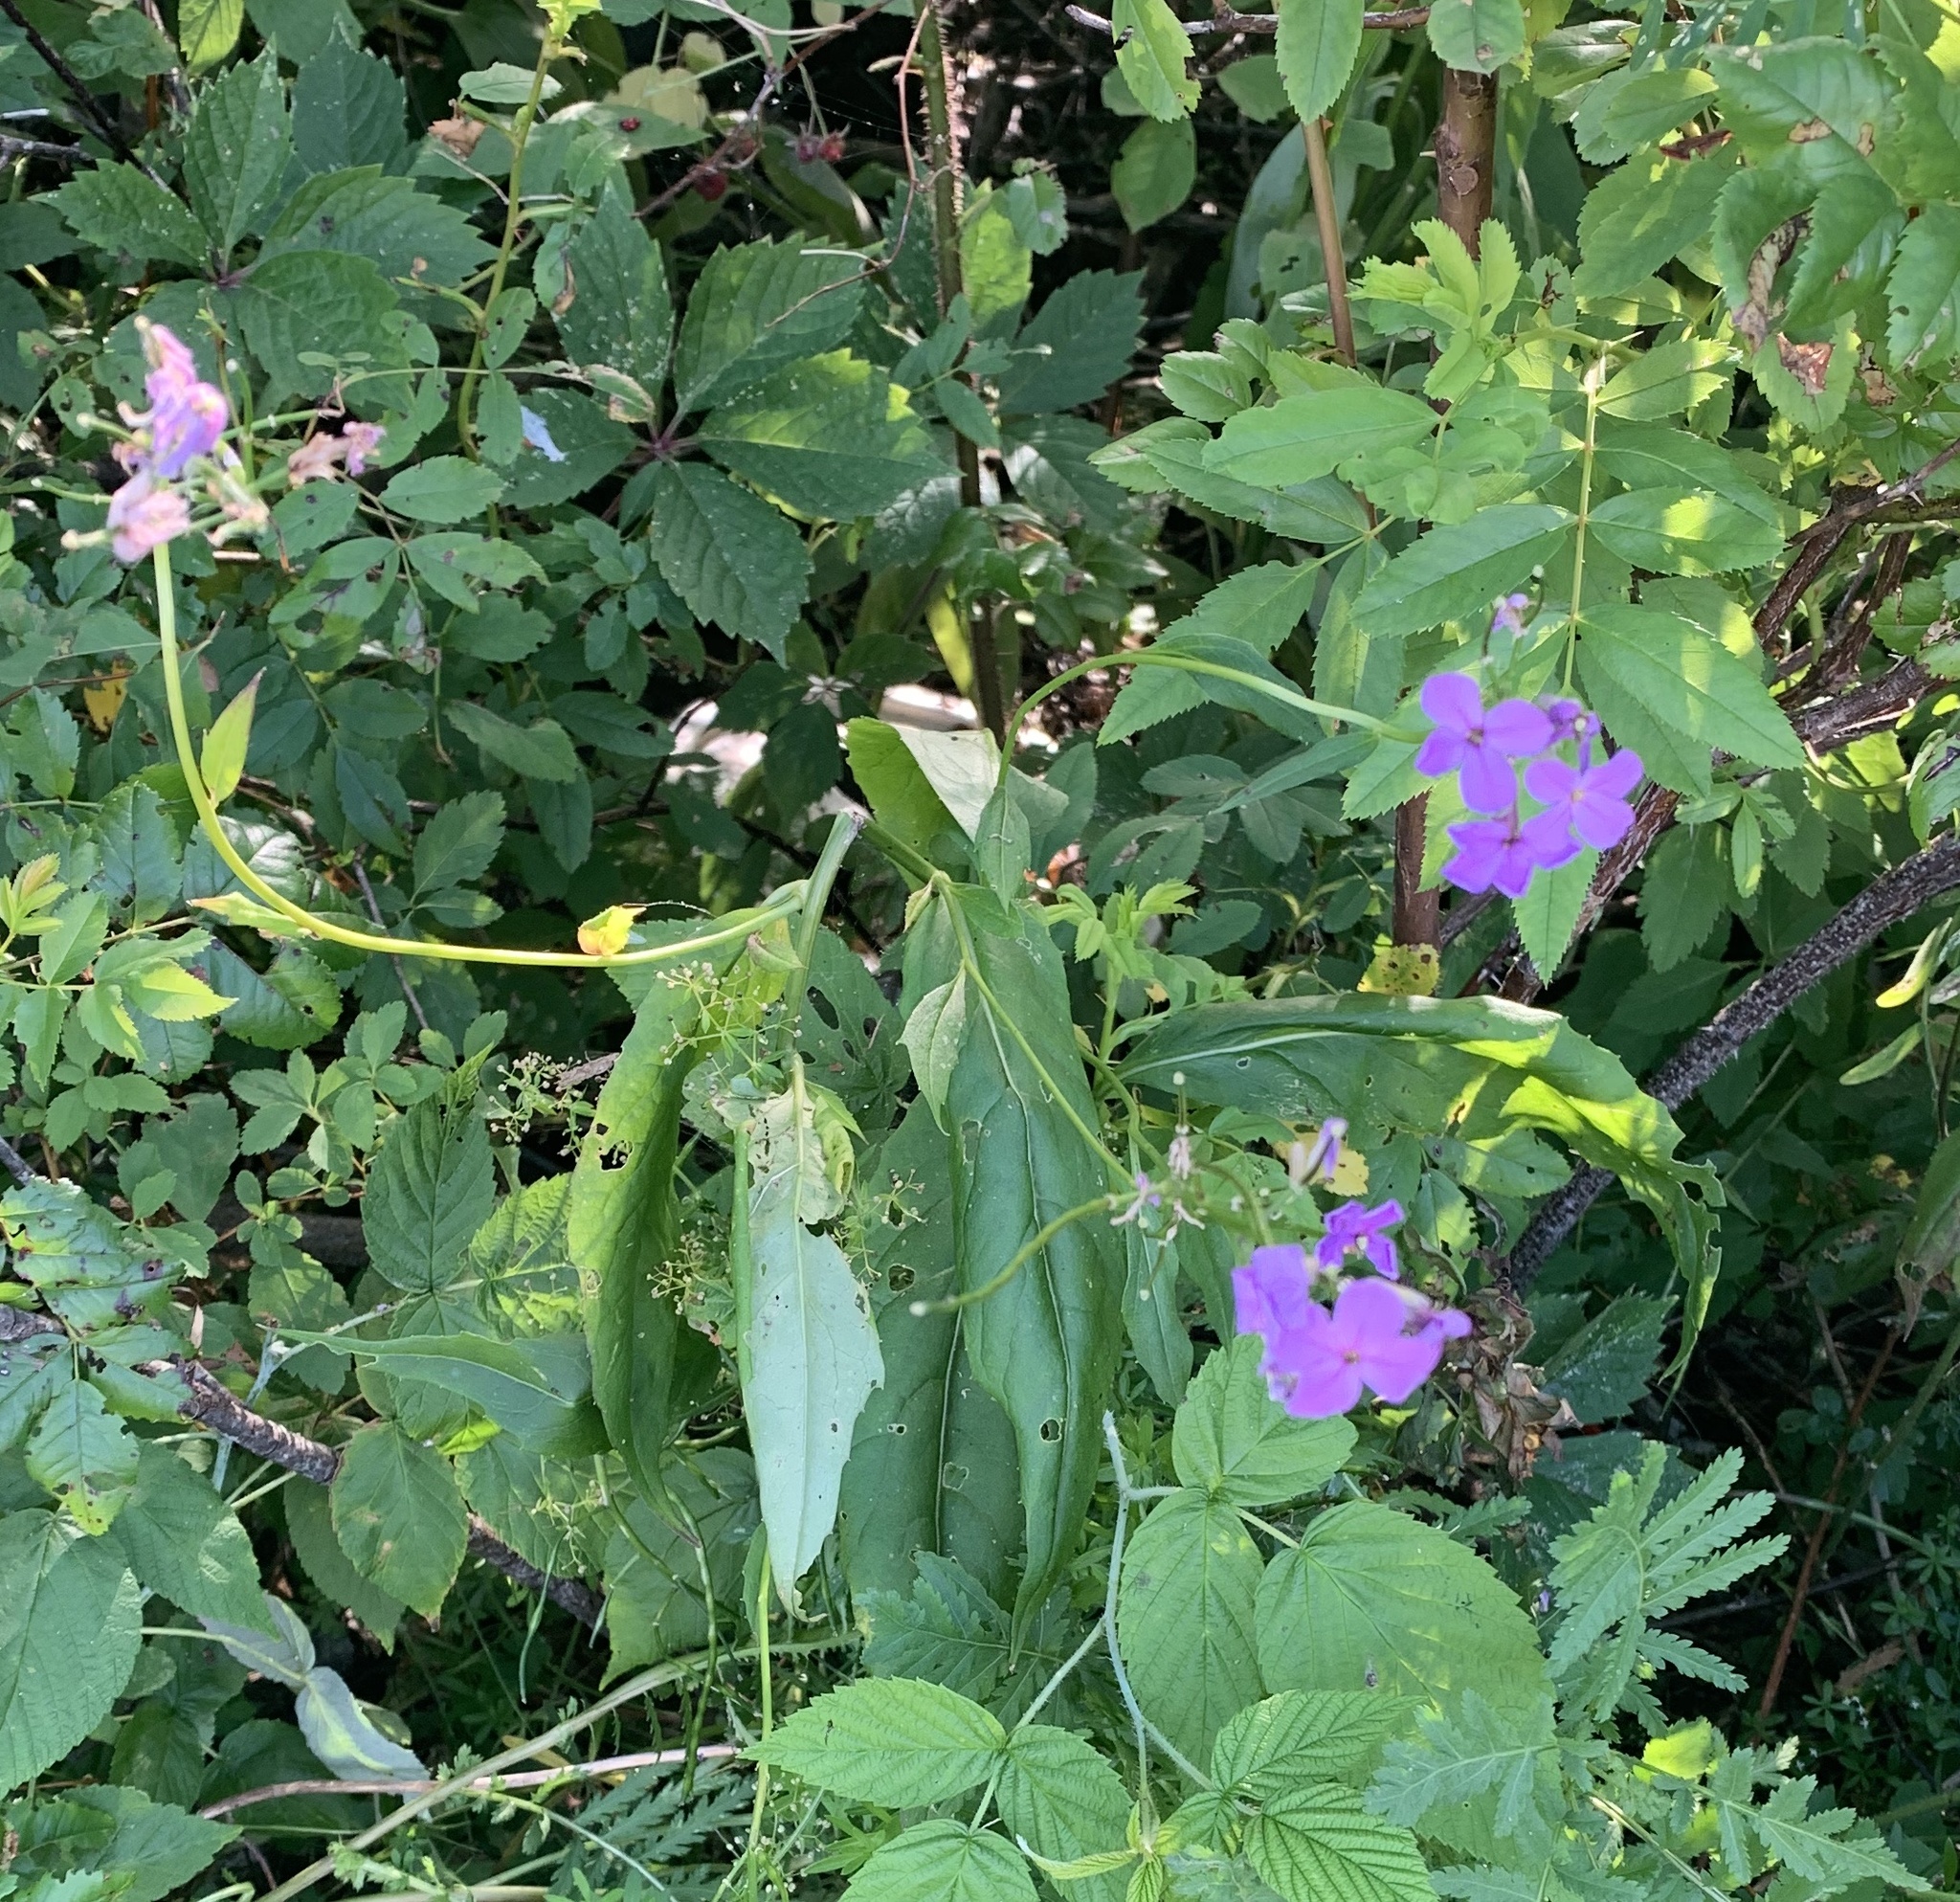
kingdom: Plantae
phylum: Tracheophyta
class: Magnoliopsida
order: Brassicales
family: Brassicaceae
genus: Hesperis
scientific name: Hesperis matronalis
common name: Dame's-violet
